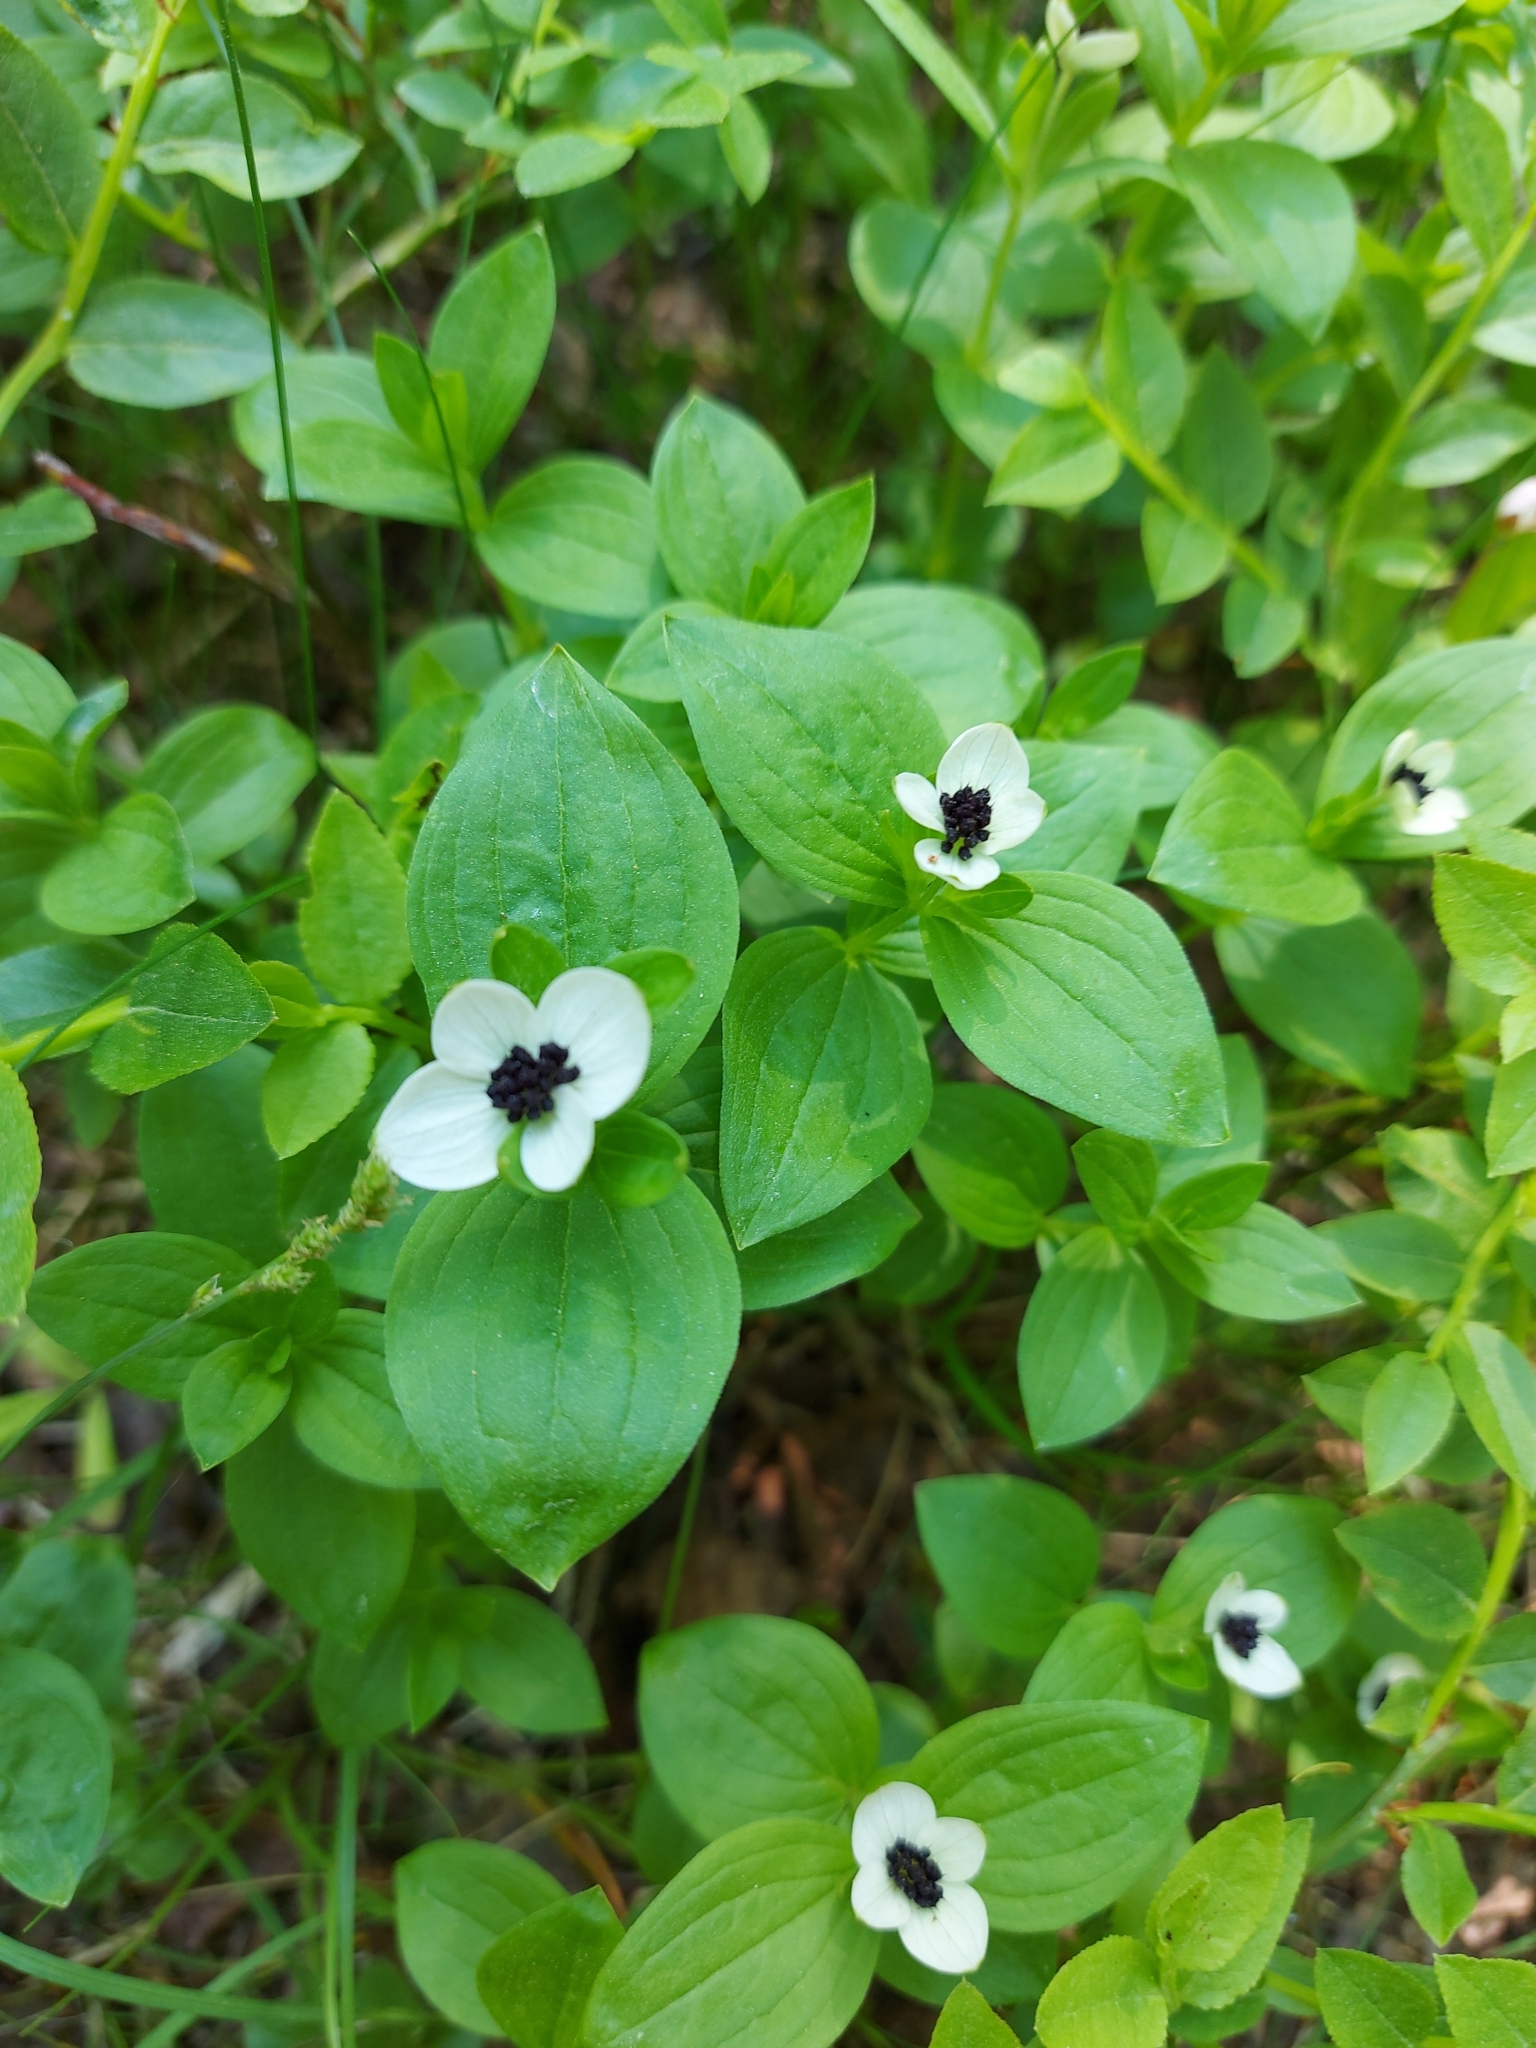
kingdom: Plantae
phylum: Tracheophyta
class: Magnoliopsida
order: Cornales
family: Cornaceae
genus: Cornus
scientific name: Cornus suecica
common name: Dwarf cornel
